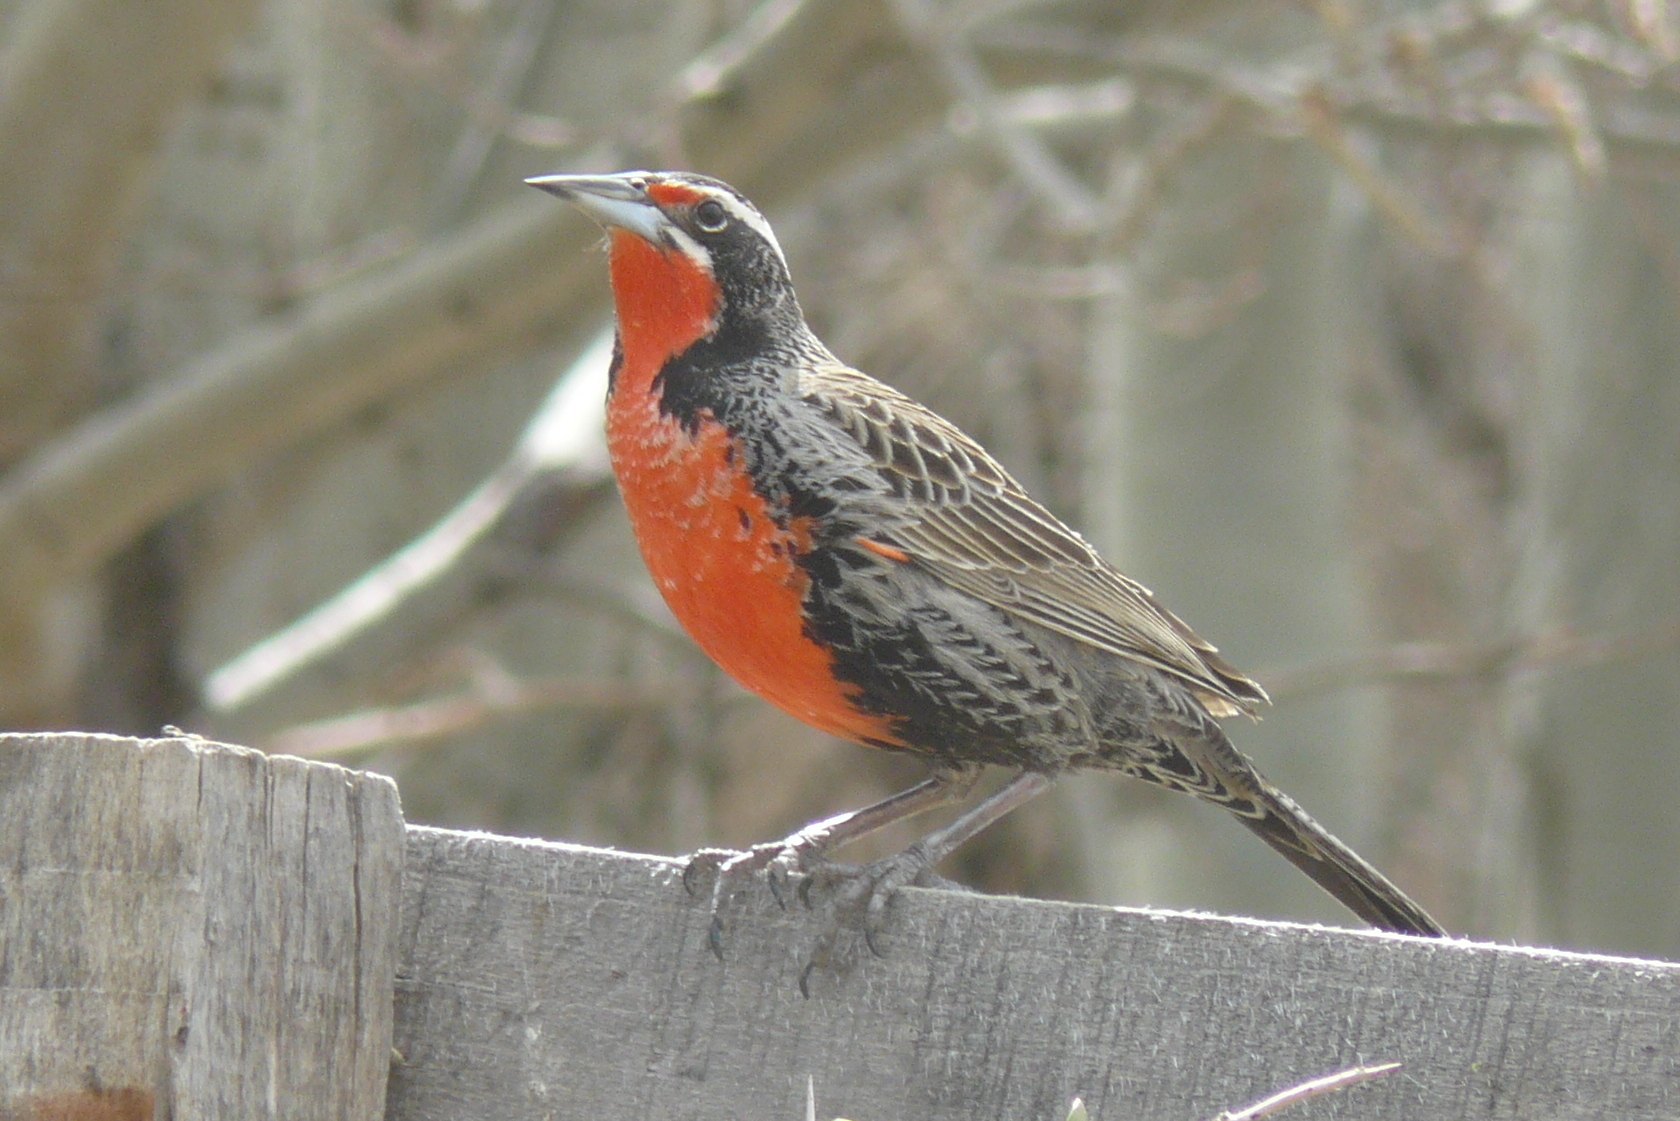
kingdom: Animalia
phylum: Chordata
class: Aves
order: Passeriformes
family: Icteridae
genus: Sturnella
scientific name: Sturnella loyca
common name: Long-tailed meadowlark
